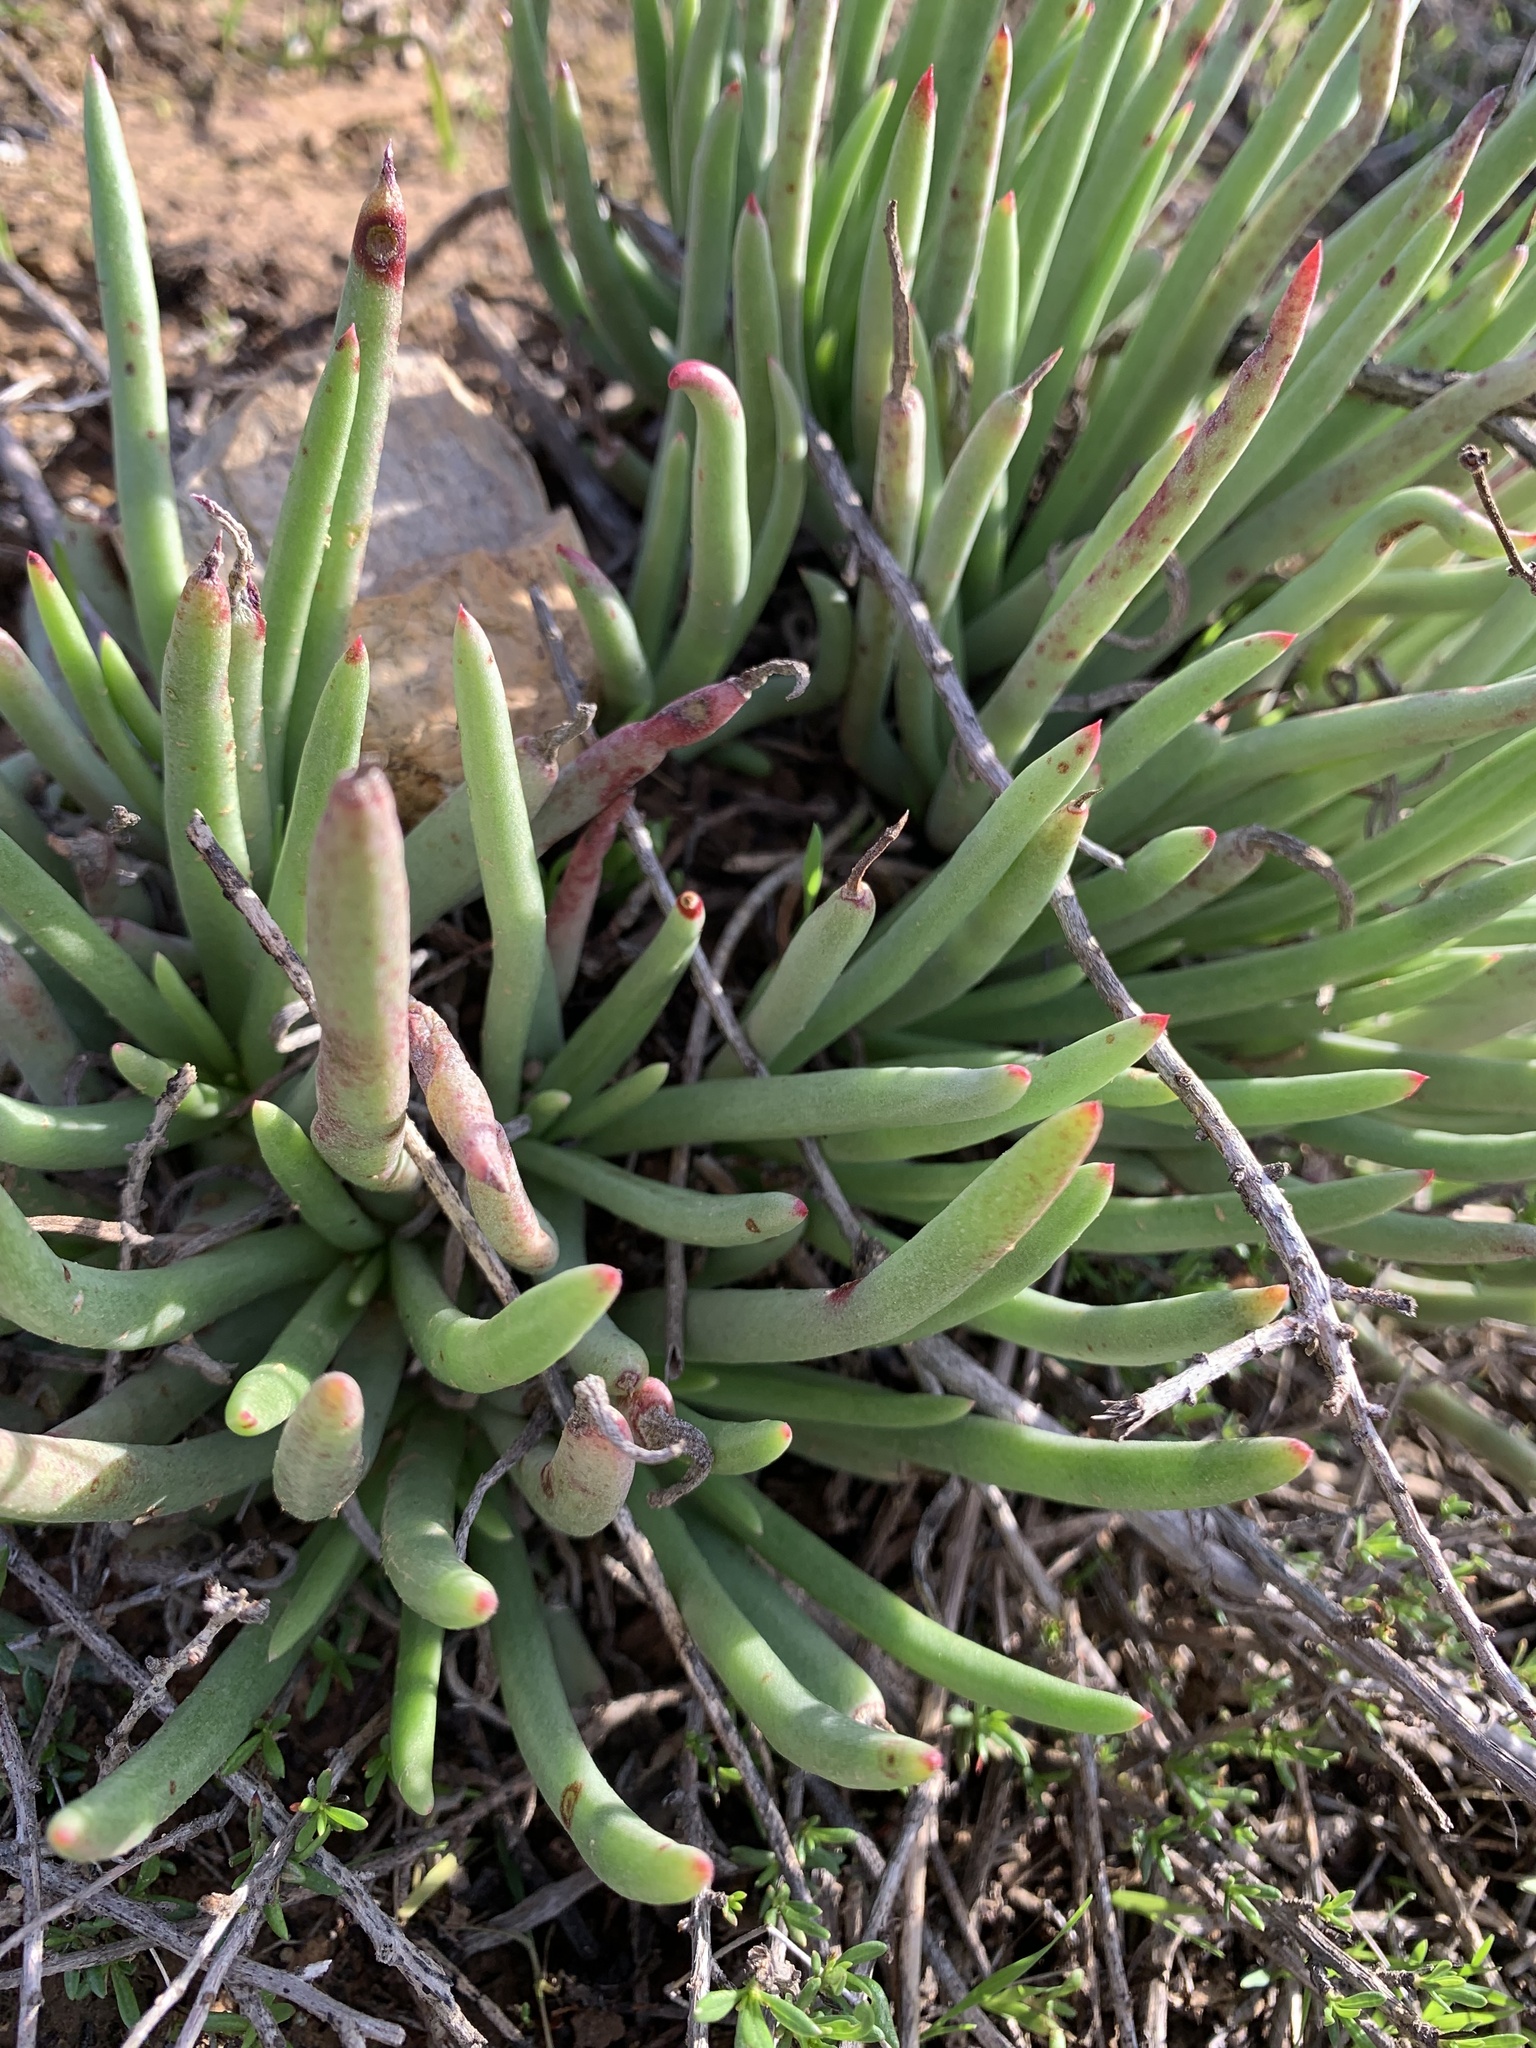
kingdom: Plantae
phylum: Tracheophyta
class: Magnoliopsida
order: Saxifragales
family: Crassulaceae
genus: Dudleya
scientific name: Dudleya edulis
